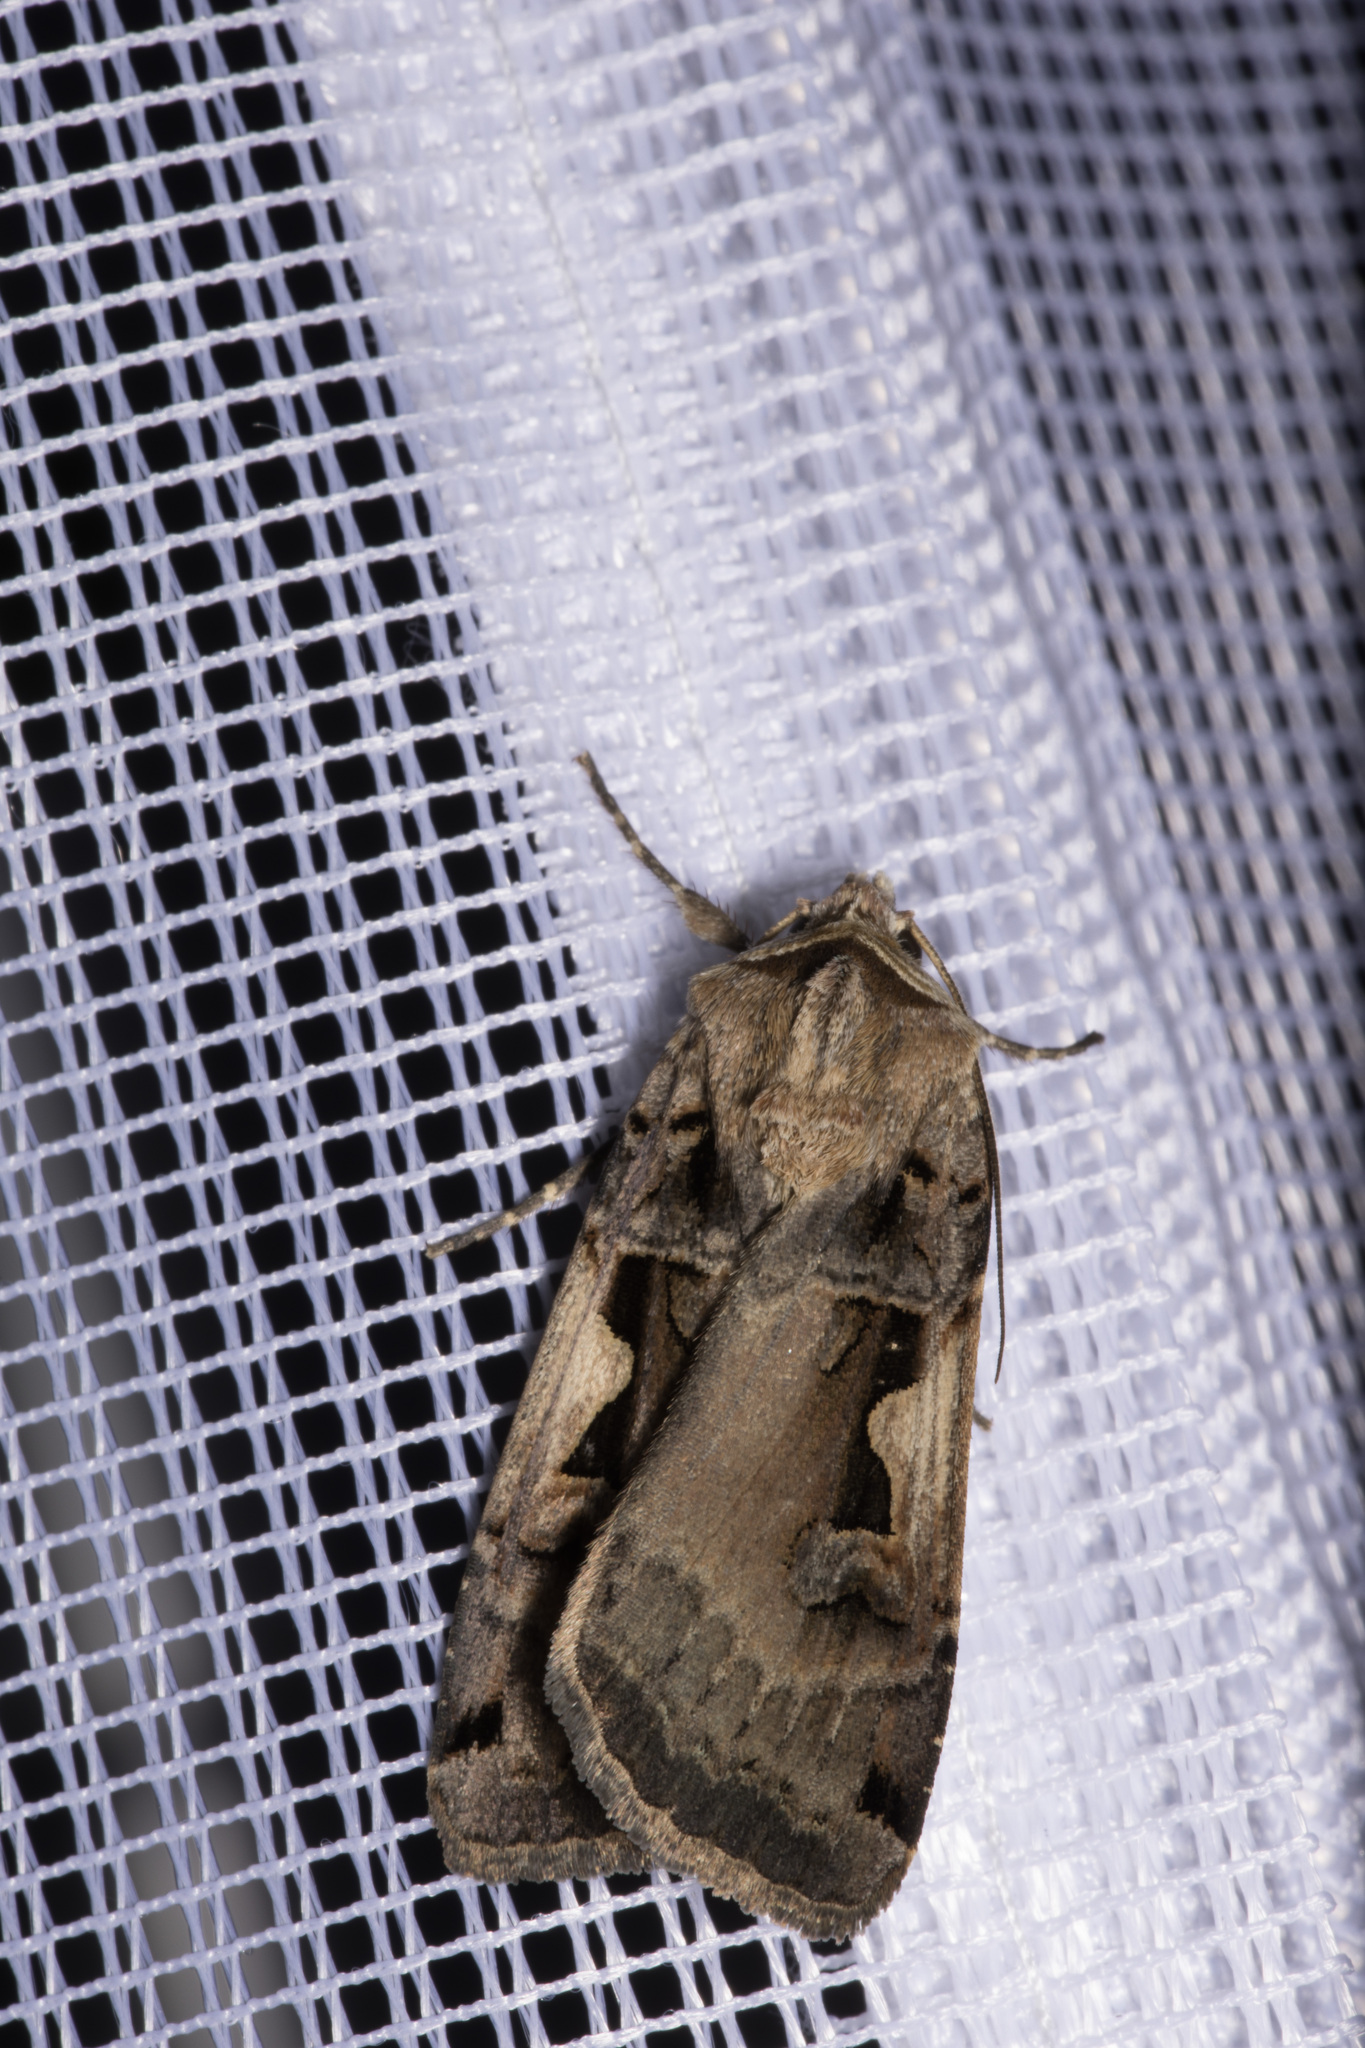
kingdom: Animalia
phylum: Arthropoda
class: Insecta
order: Lepidoptera
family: Noctuidae
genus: Xestia
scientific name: Xestia c-nigrum
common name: Setaceous hebrew character
